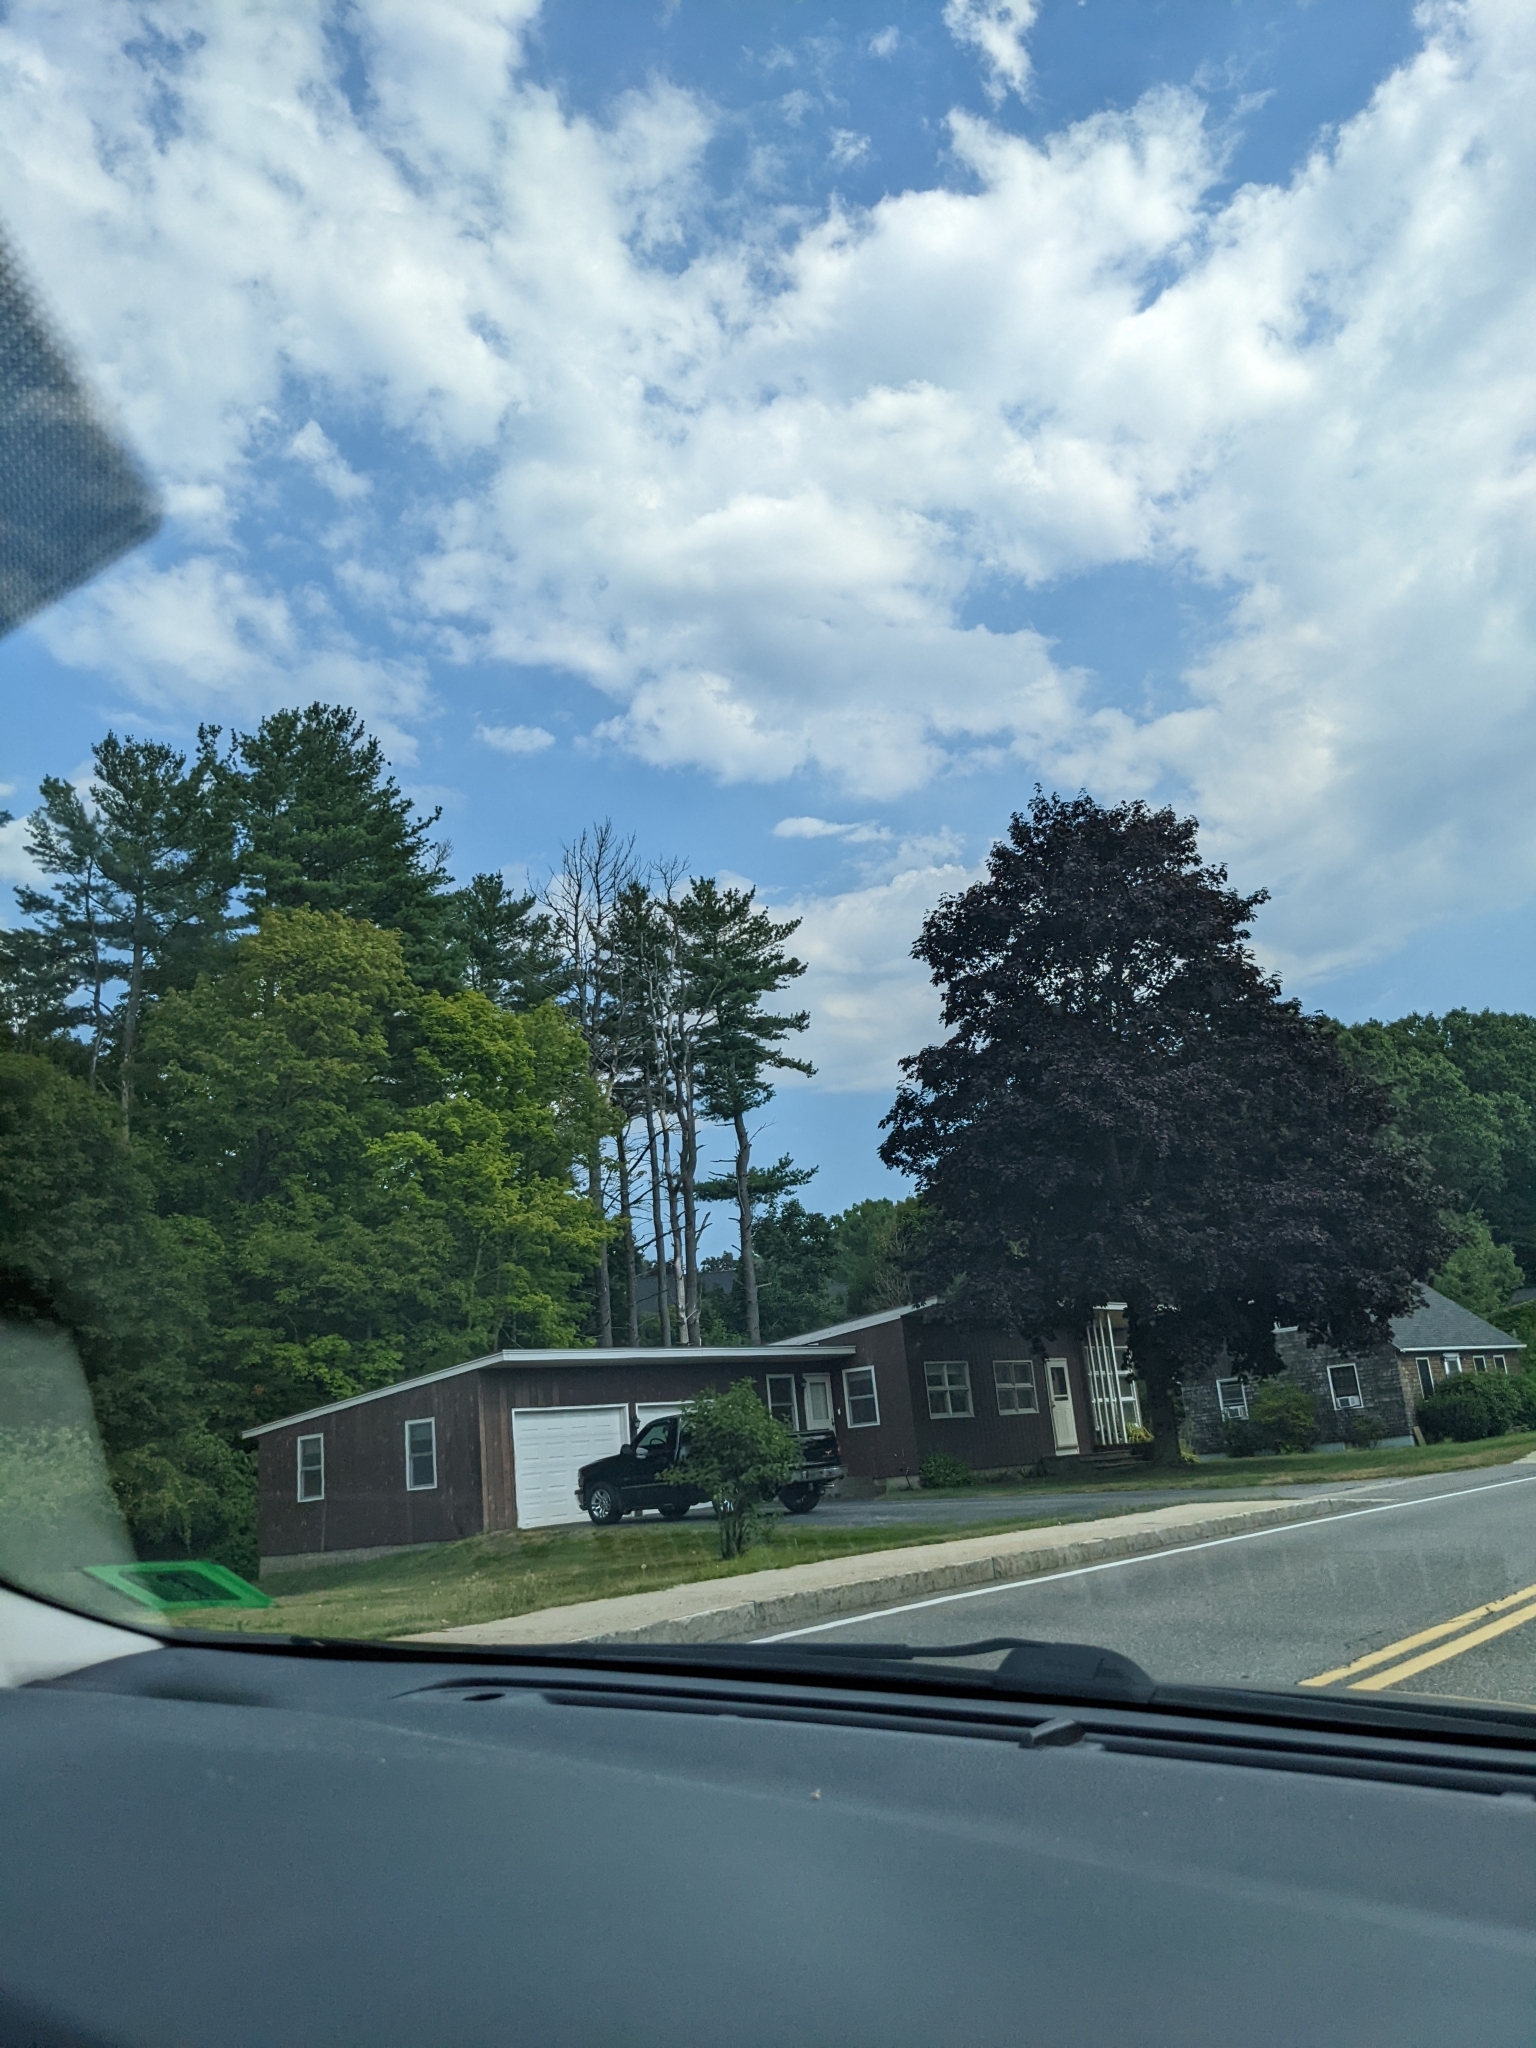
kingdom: Plantae
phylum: Tracheophyta
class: Pinopsida
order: Pinales
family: Pinaceae
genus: Pinus
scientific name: Pinus strobus
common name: Weymouth pine
